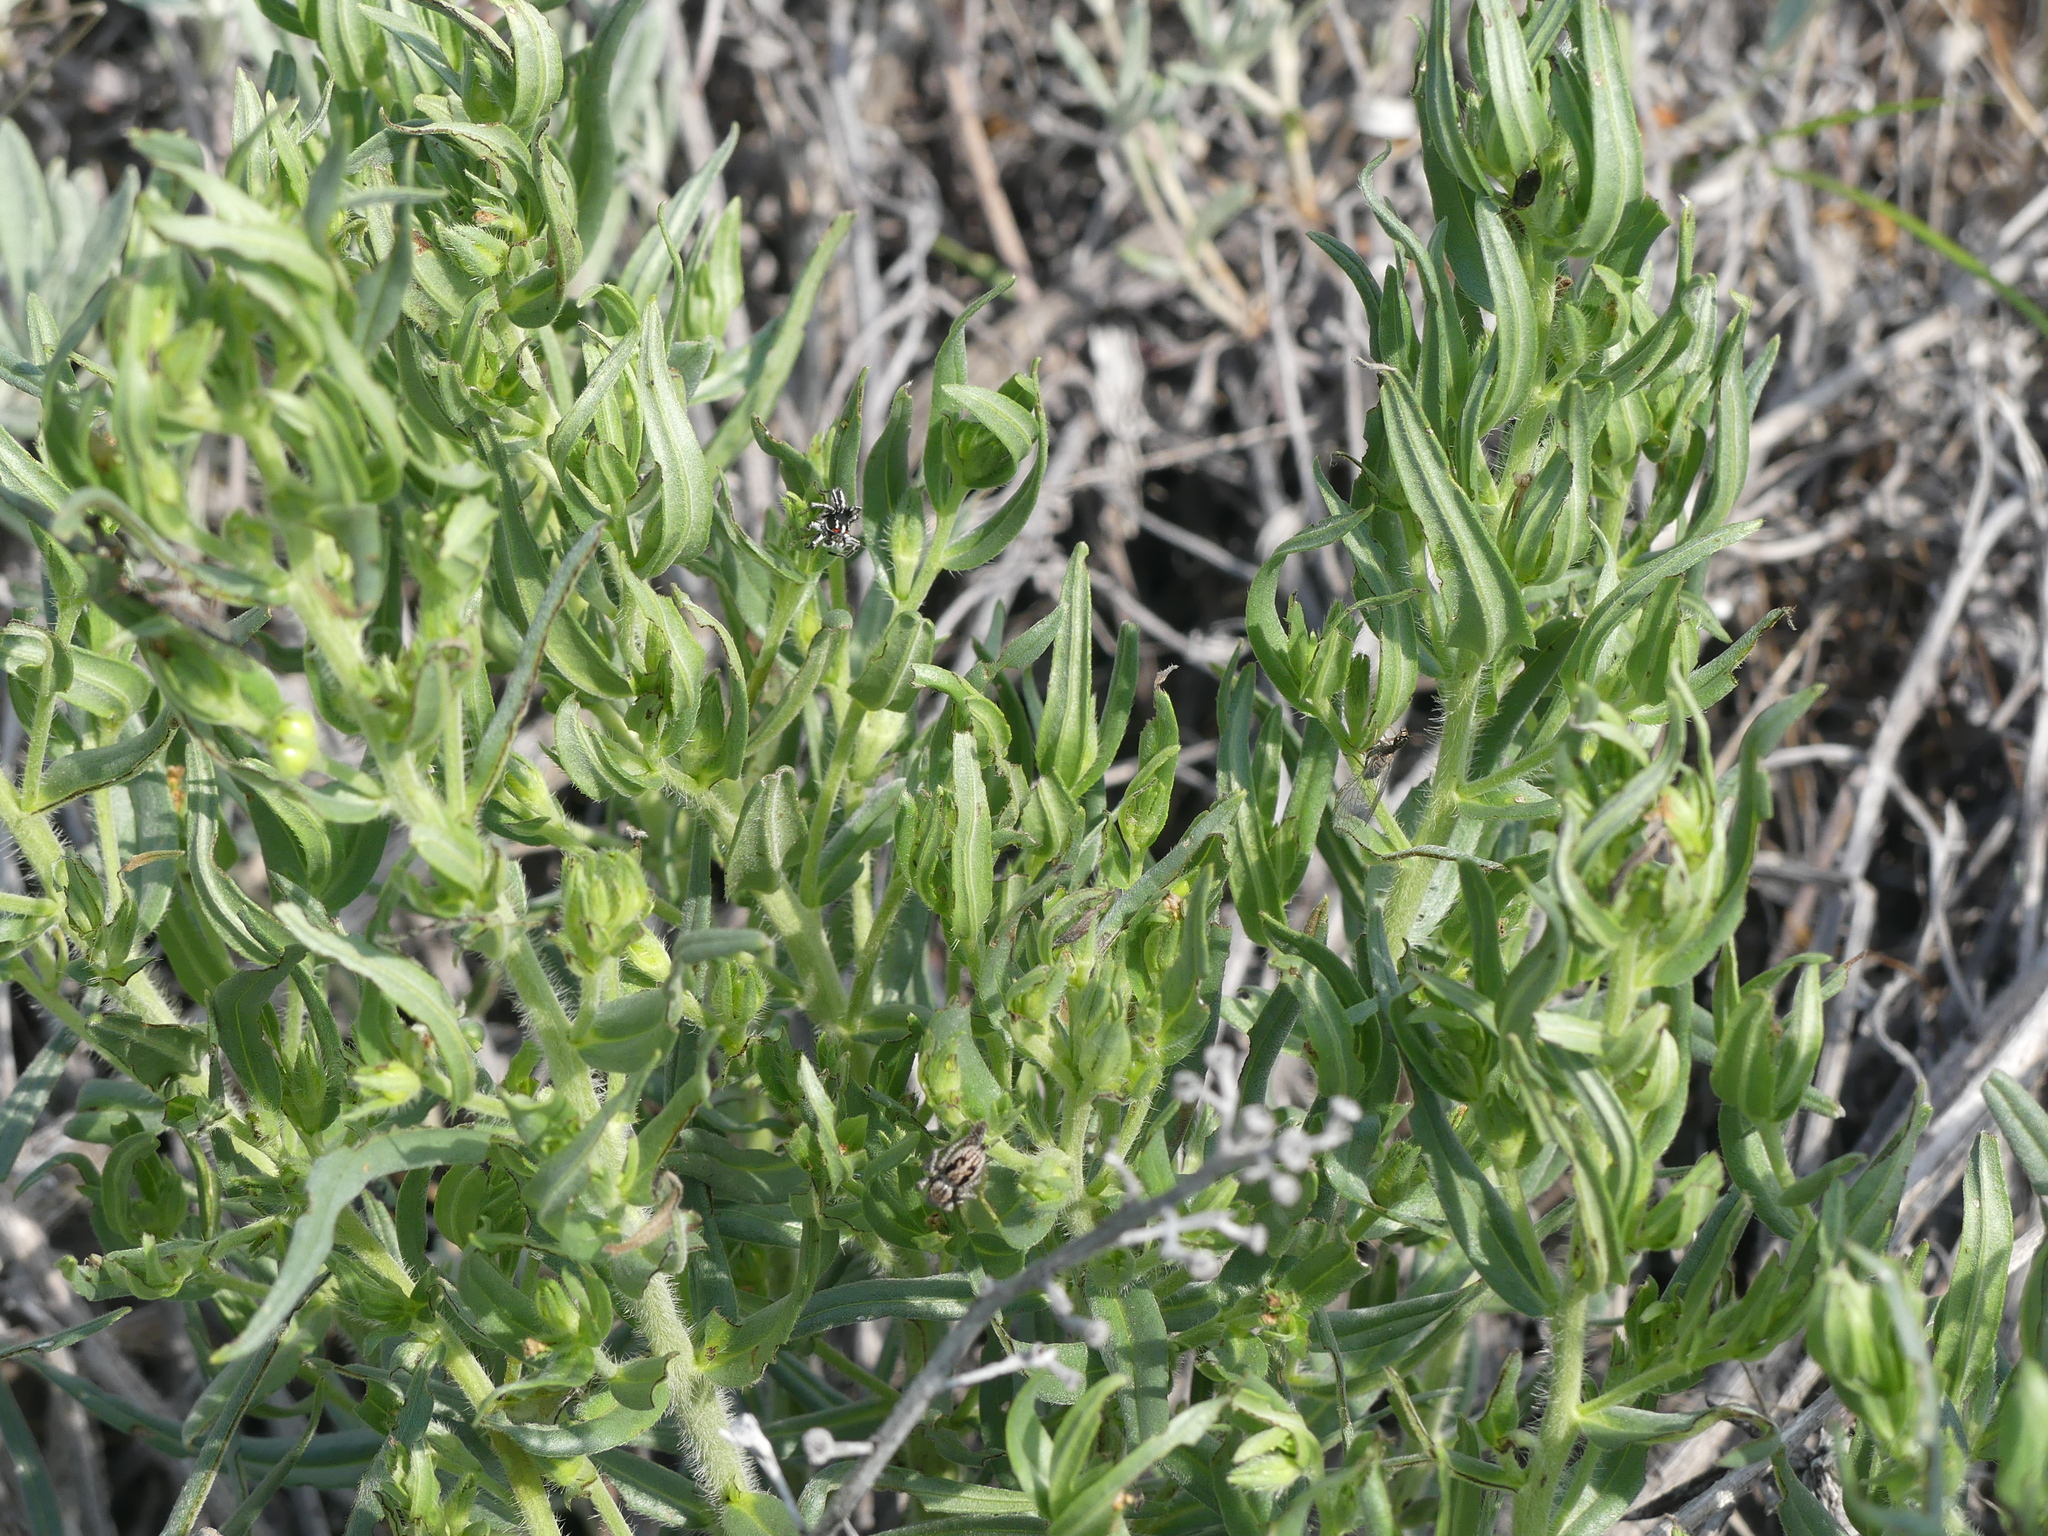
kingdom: Animalia
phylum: Arthropoda
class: Arachnida
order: Araneae
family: Salticidae
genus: Habronattus
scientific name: Habronattus sansoni
